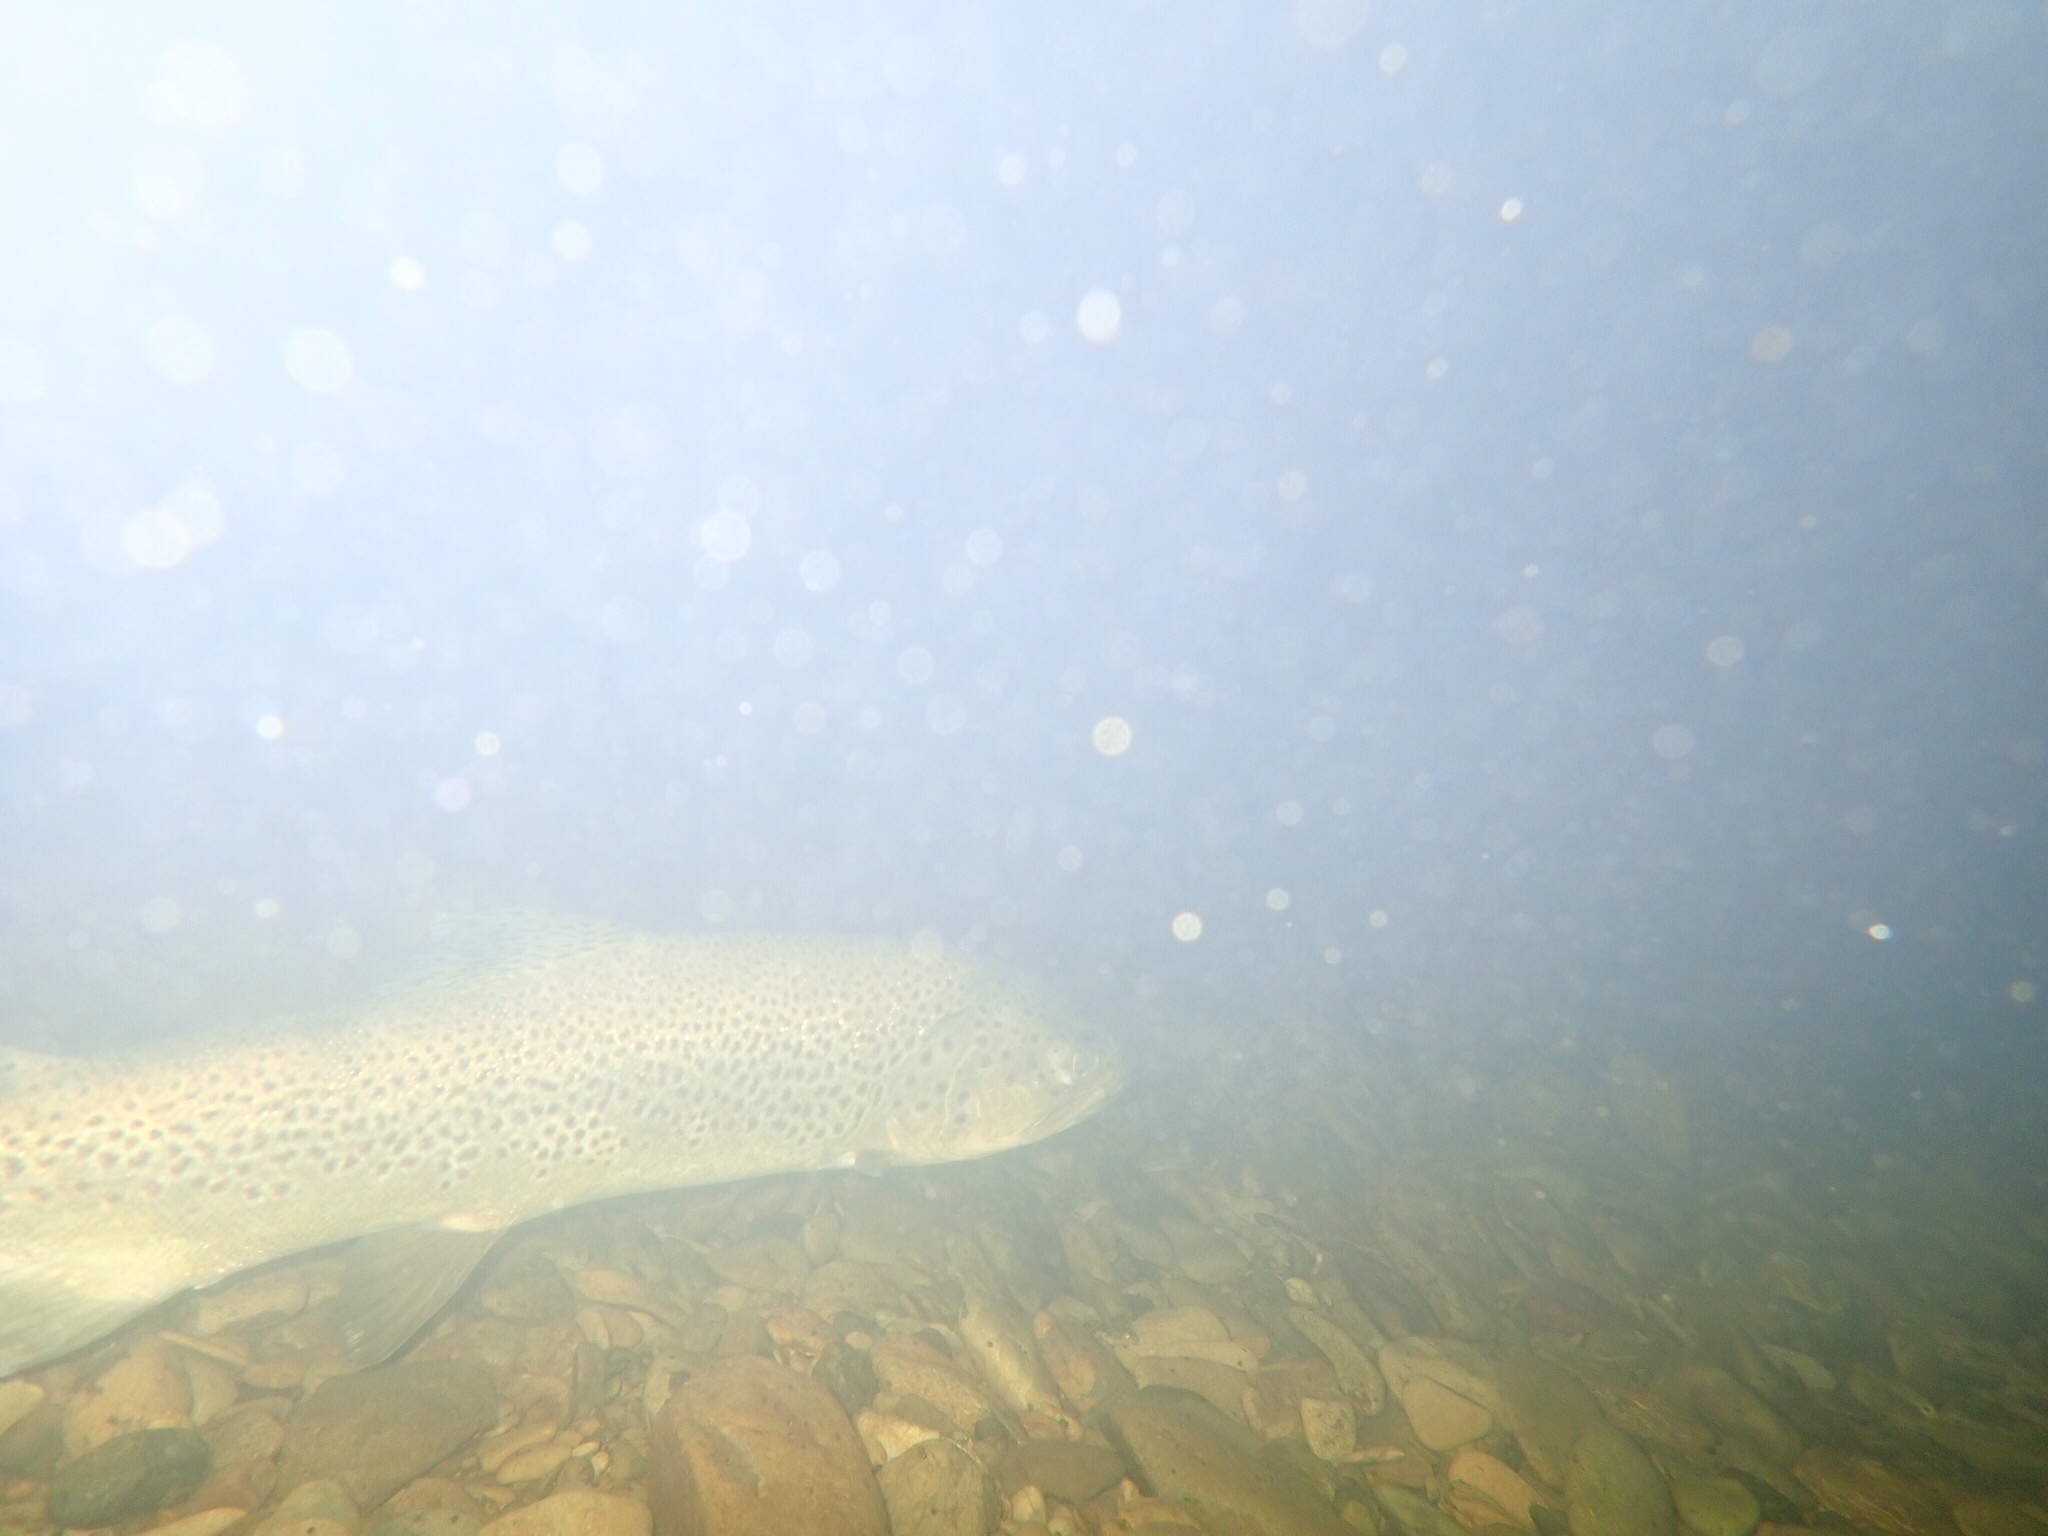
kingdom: Animalia
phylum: Chordata
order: Salmoniformes
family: Salmonidae
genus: Salmo
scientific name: Salmo trutta
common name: Brown trout
